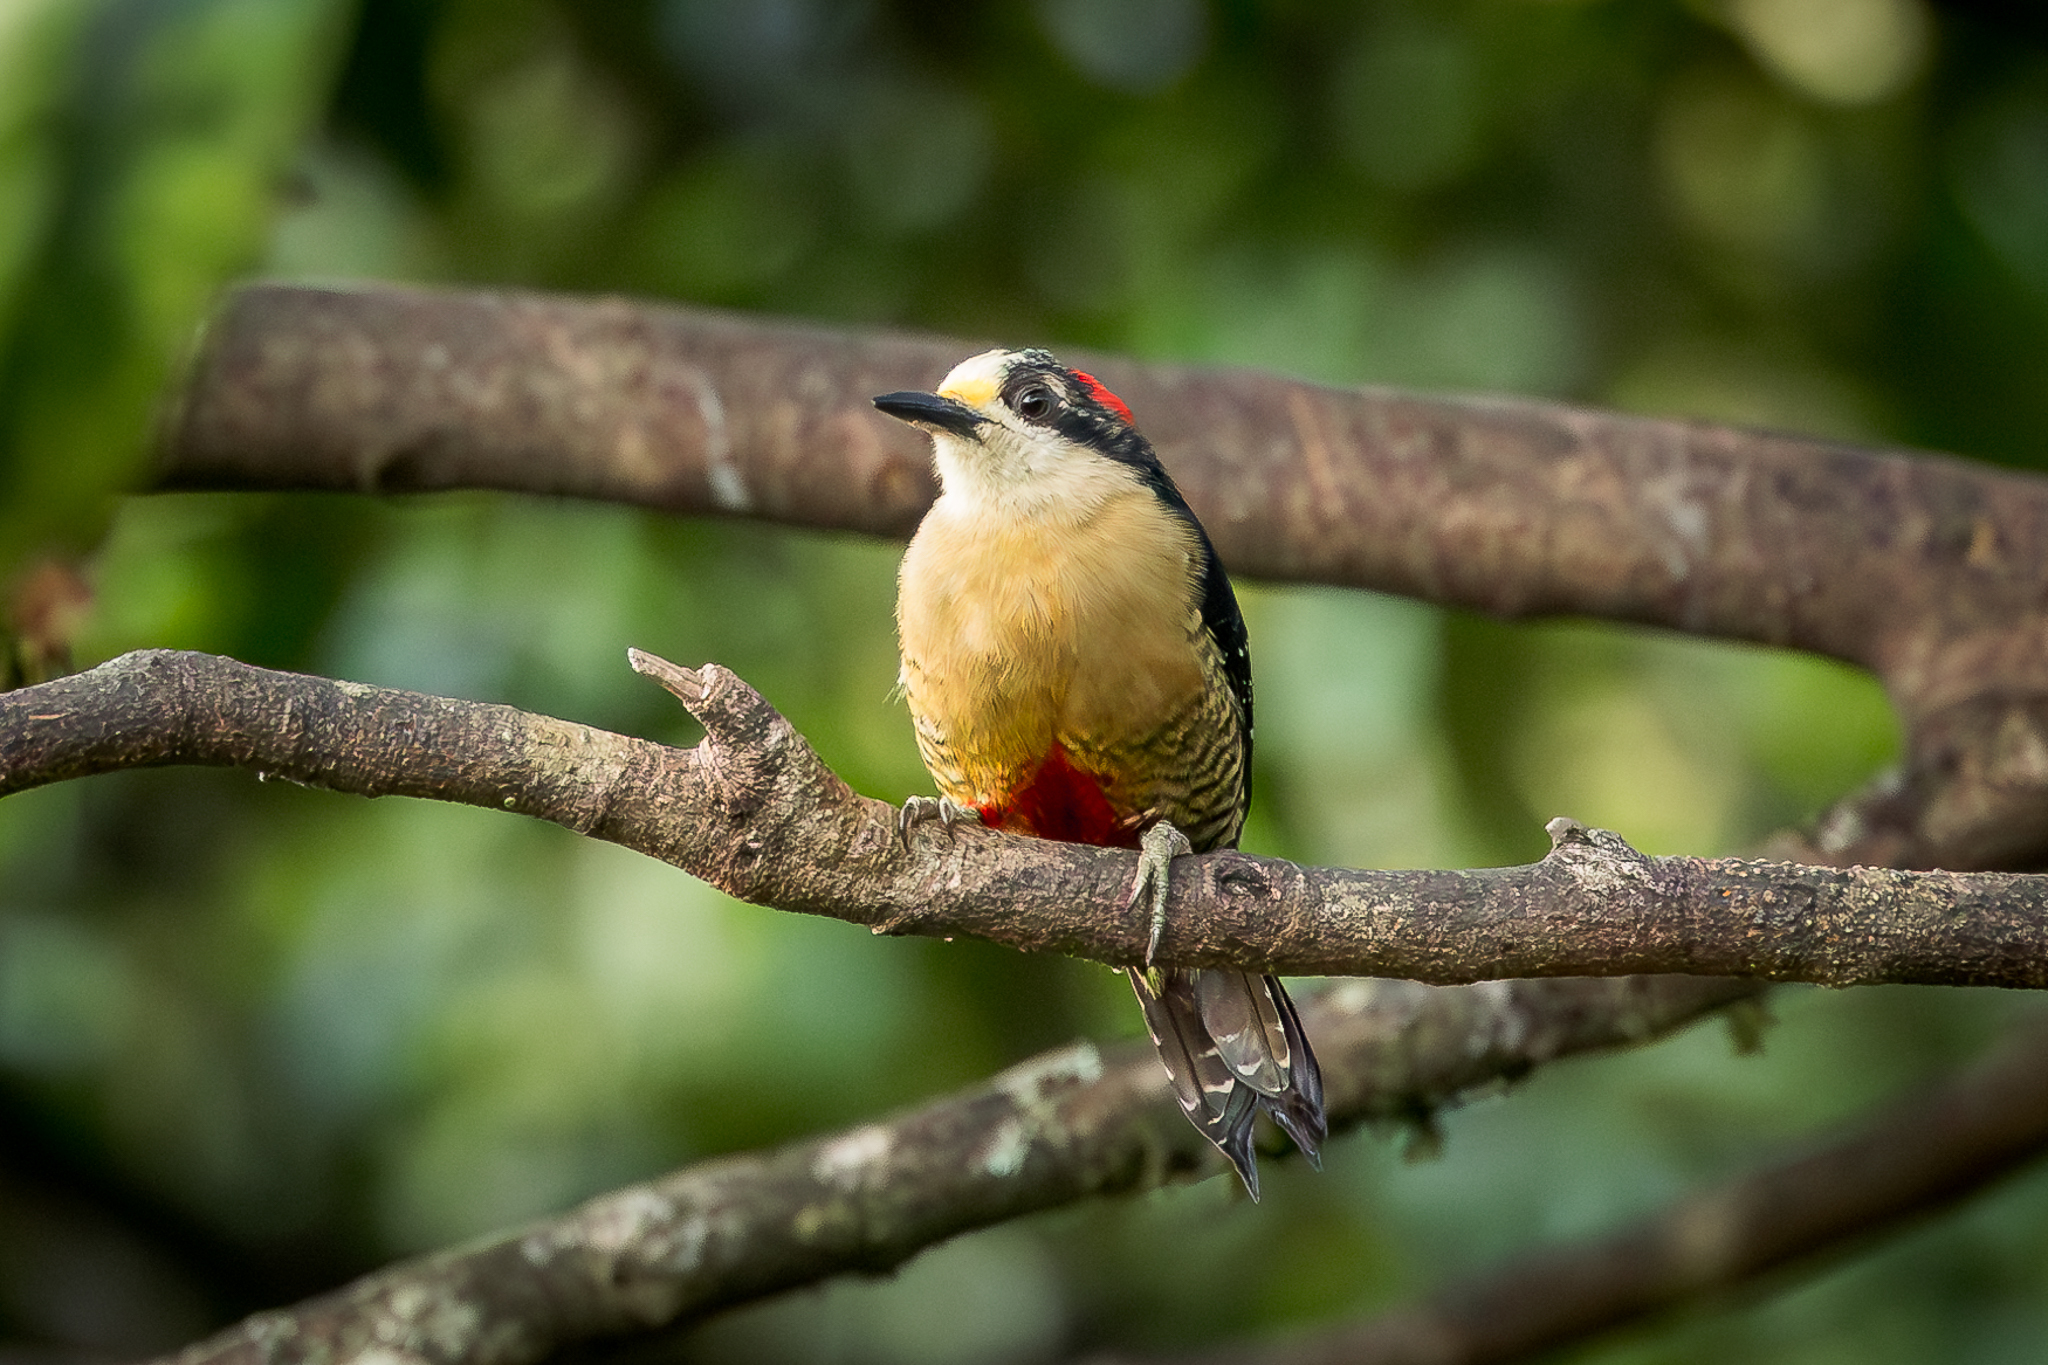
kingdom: Animalia
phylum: Chordata
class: Aves
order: Piciformes
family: Picidae
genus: Melanerpes
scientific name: Melanerpes pucherani
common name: Black-cheeked woodpecker
